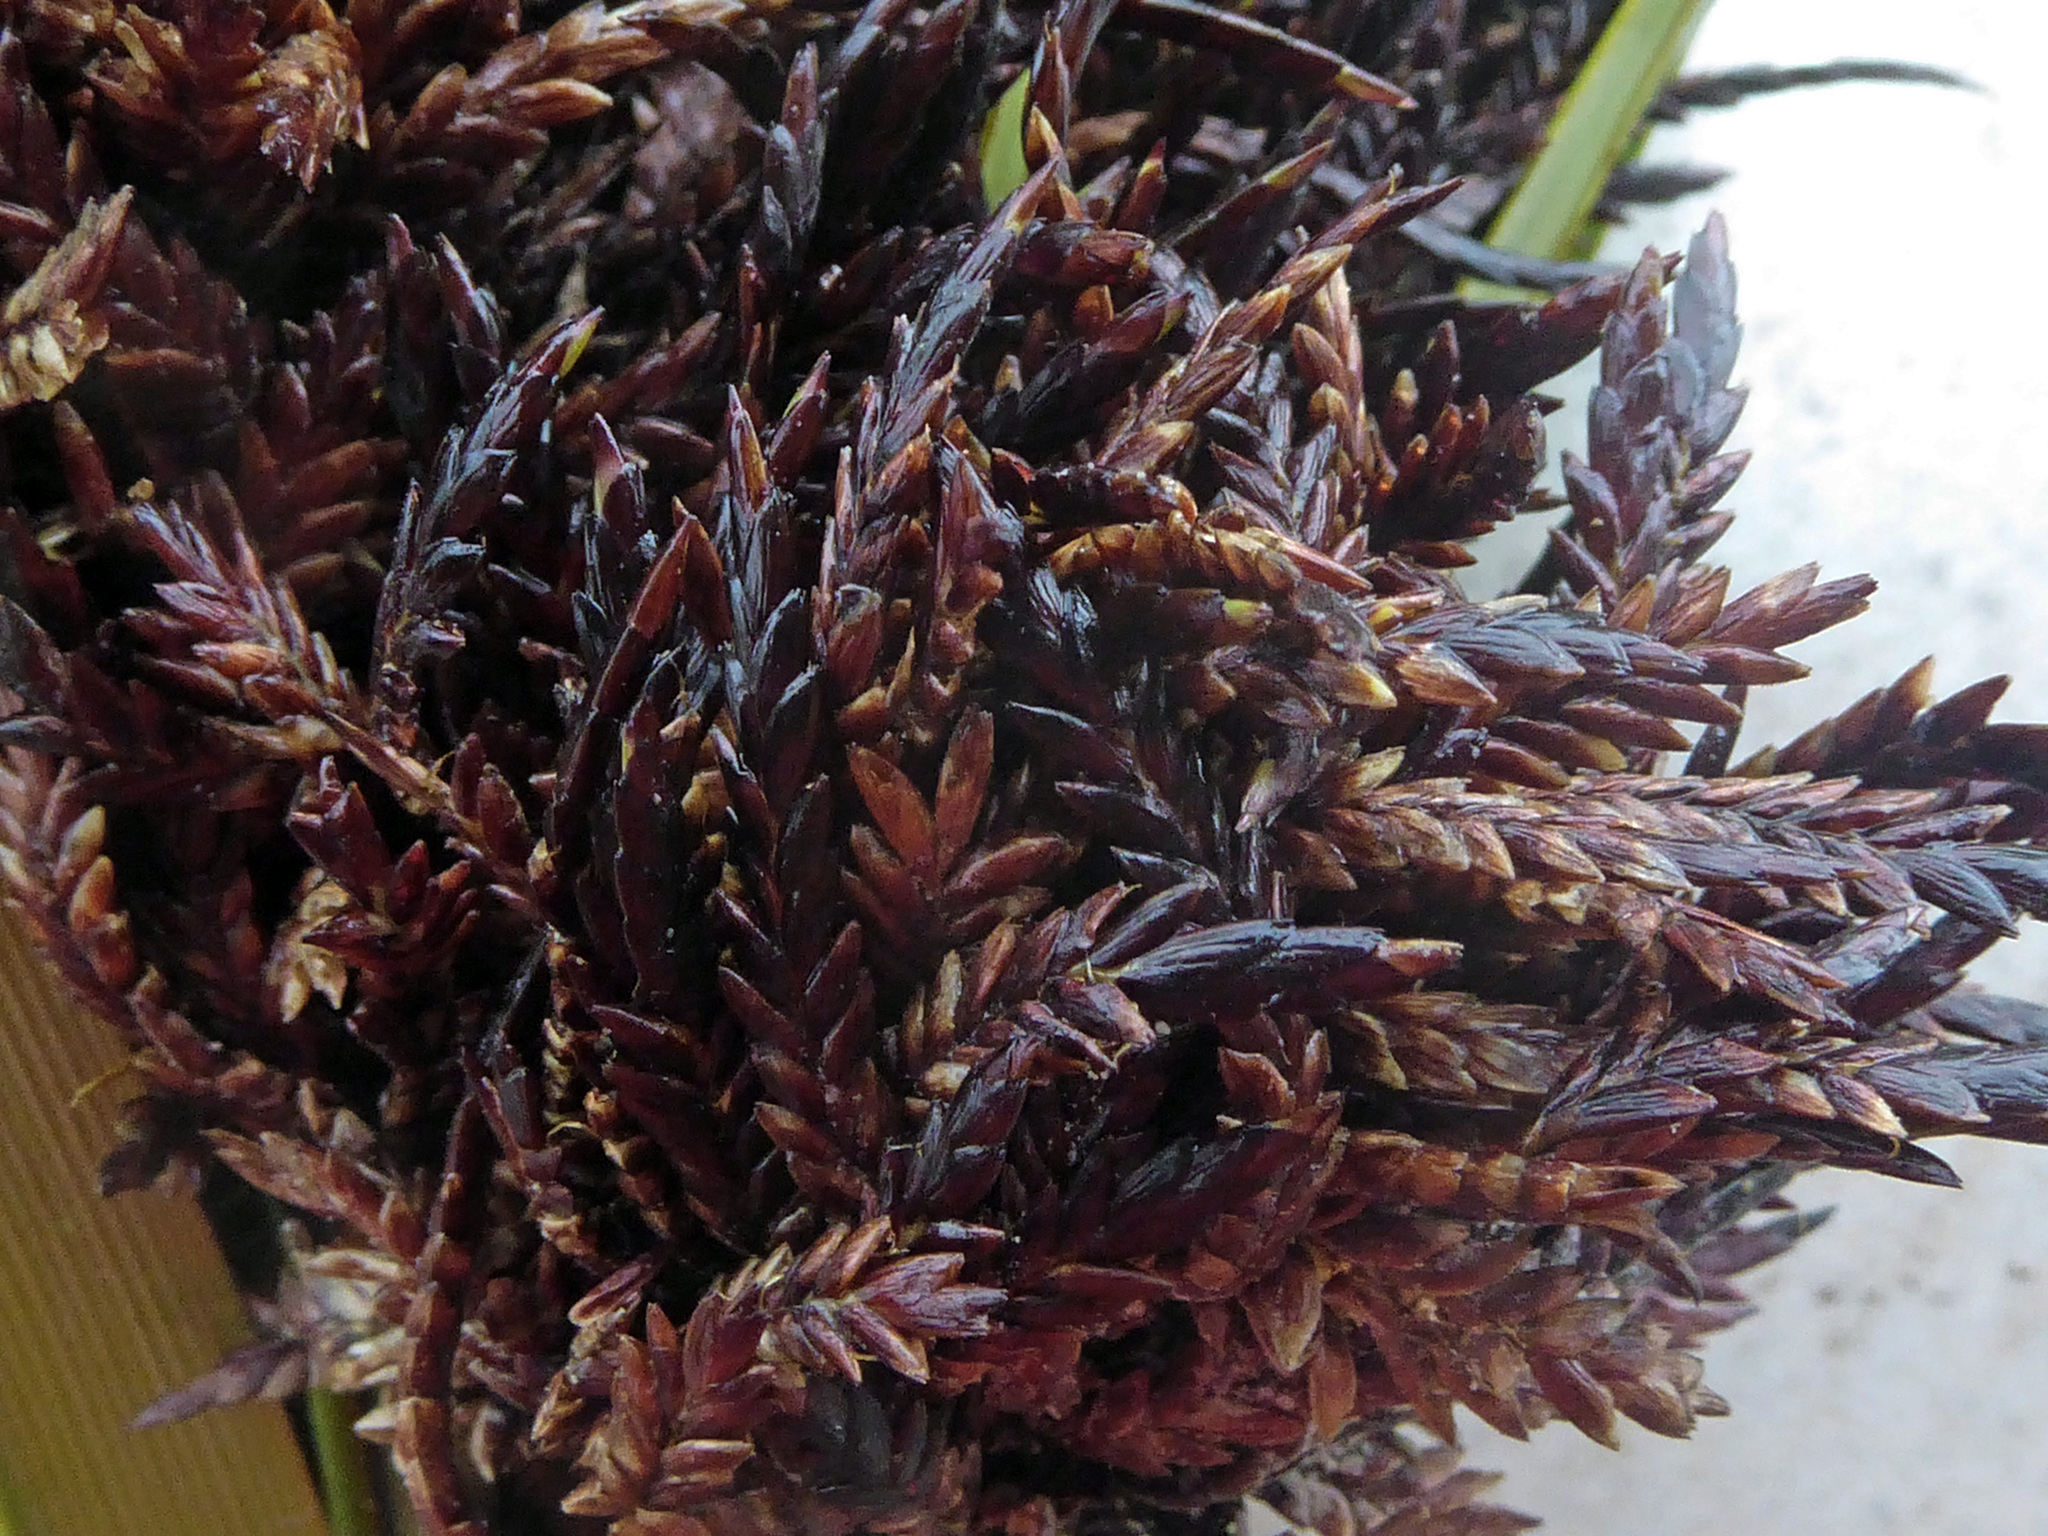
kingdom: Fungi
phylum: Basidiomycota
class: Microbotryomycetes
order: Microbotryales
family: Microbotryaceae
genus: Bauerago
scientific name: Bauerago gardneri
